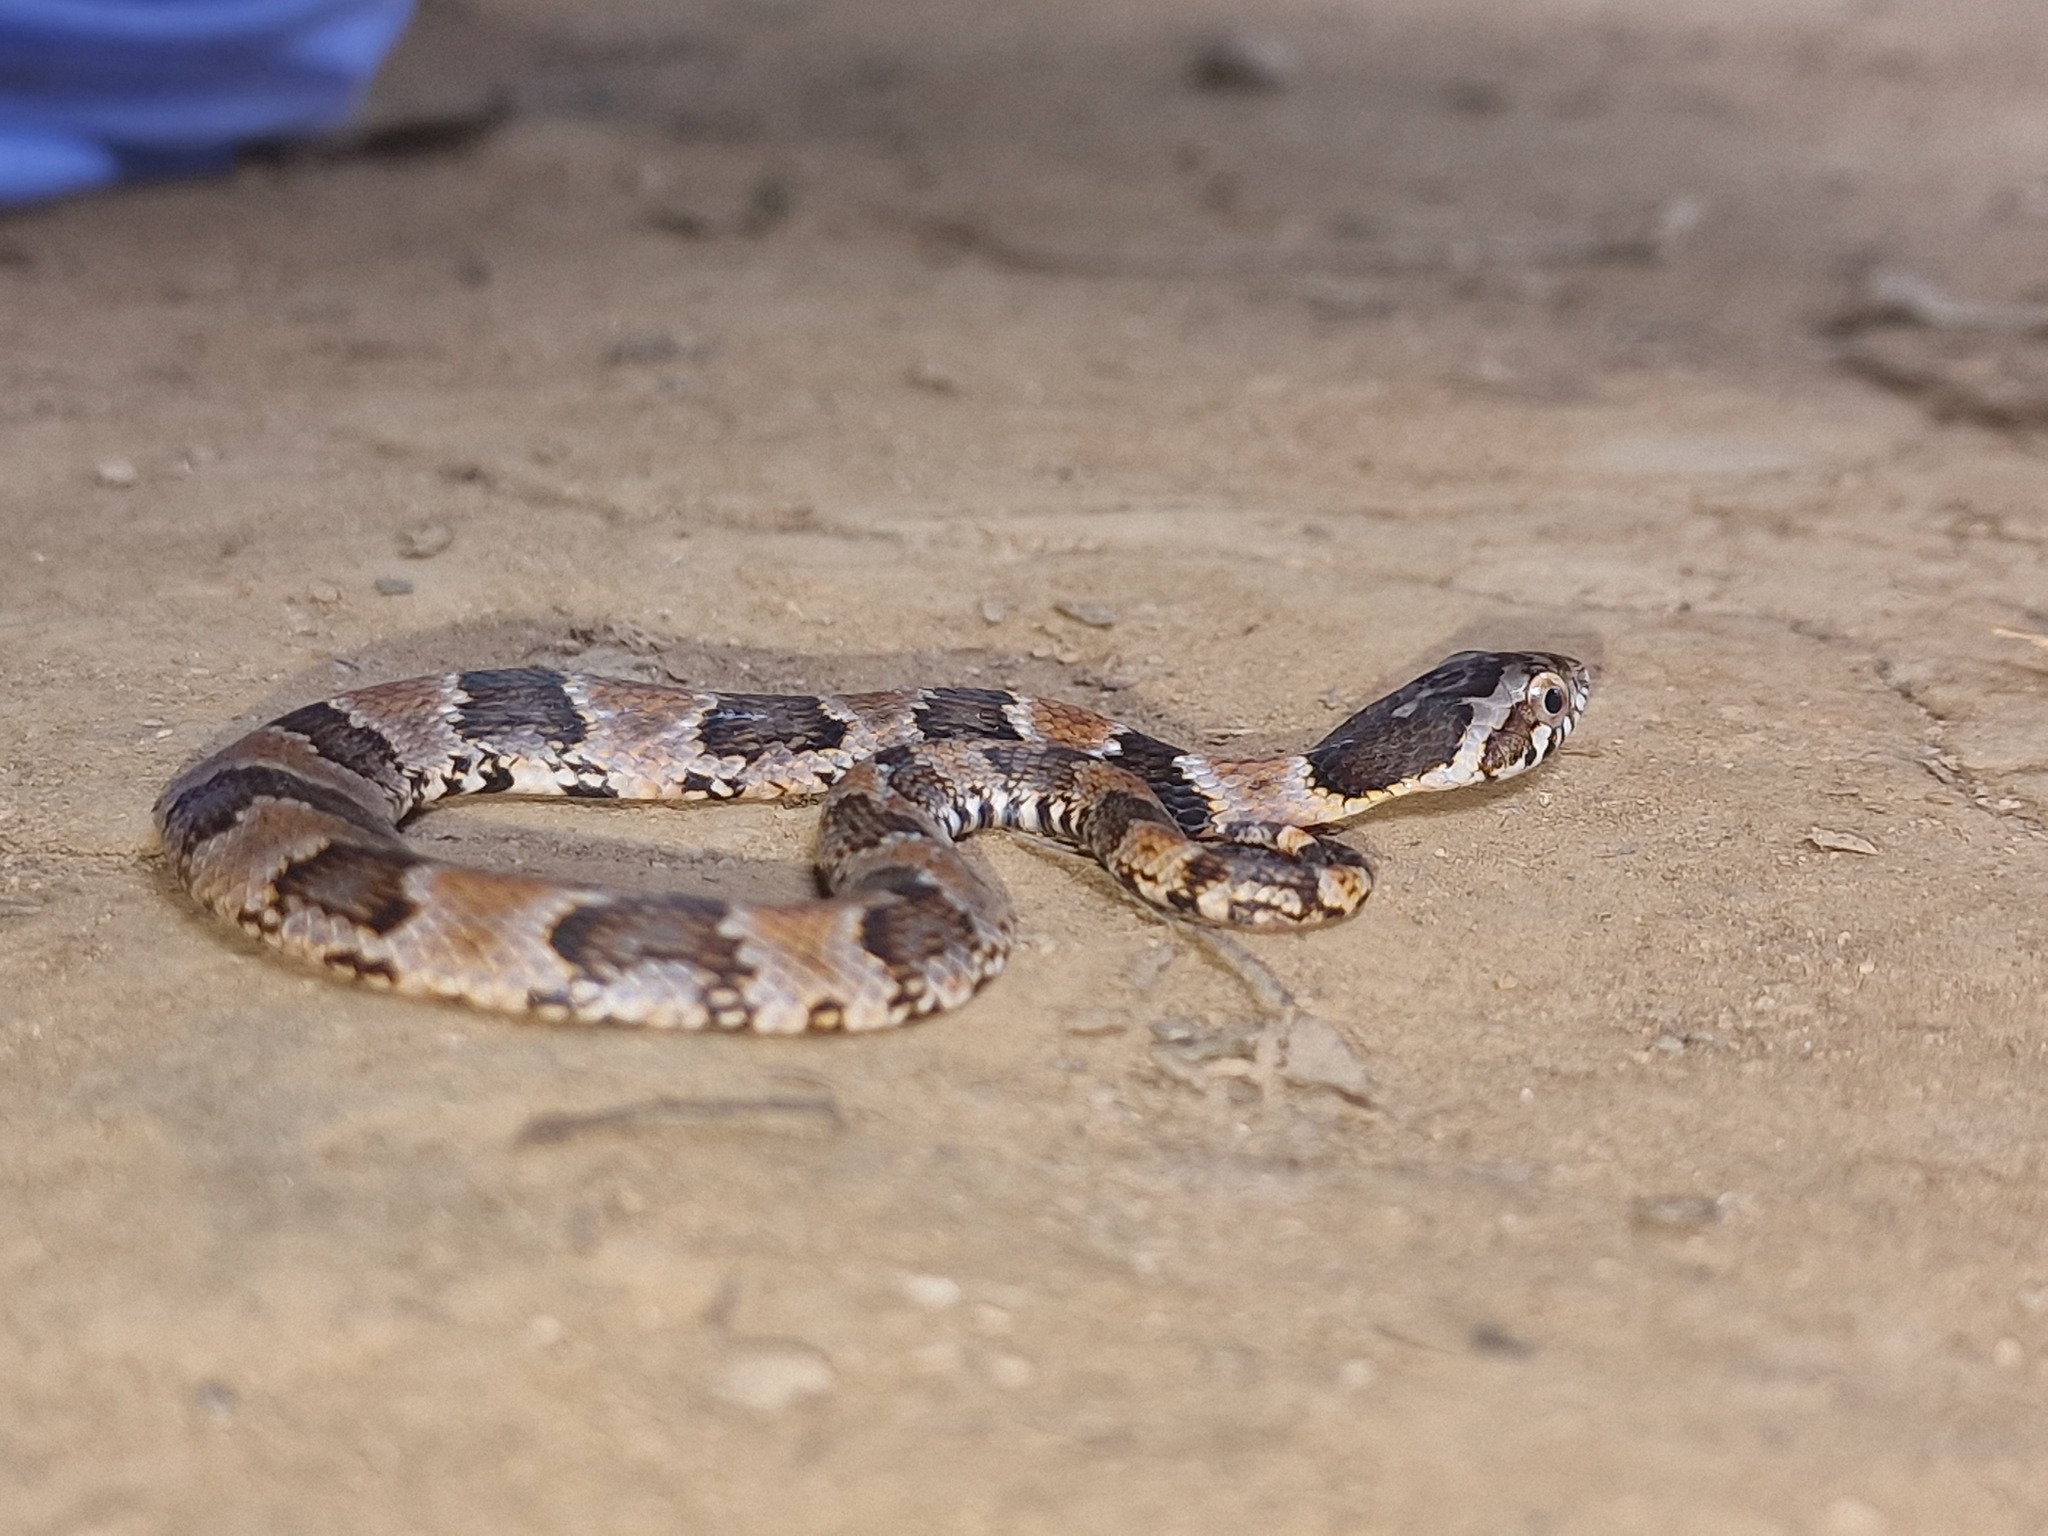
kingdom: Animalia
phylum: Chordata
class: Squamata
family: Colubridae
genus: Xenodon
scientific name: Xenodon rabdocephalus
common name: False fer-de-lance
